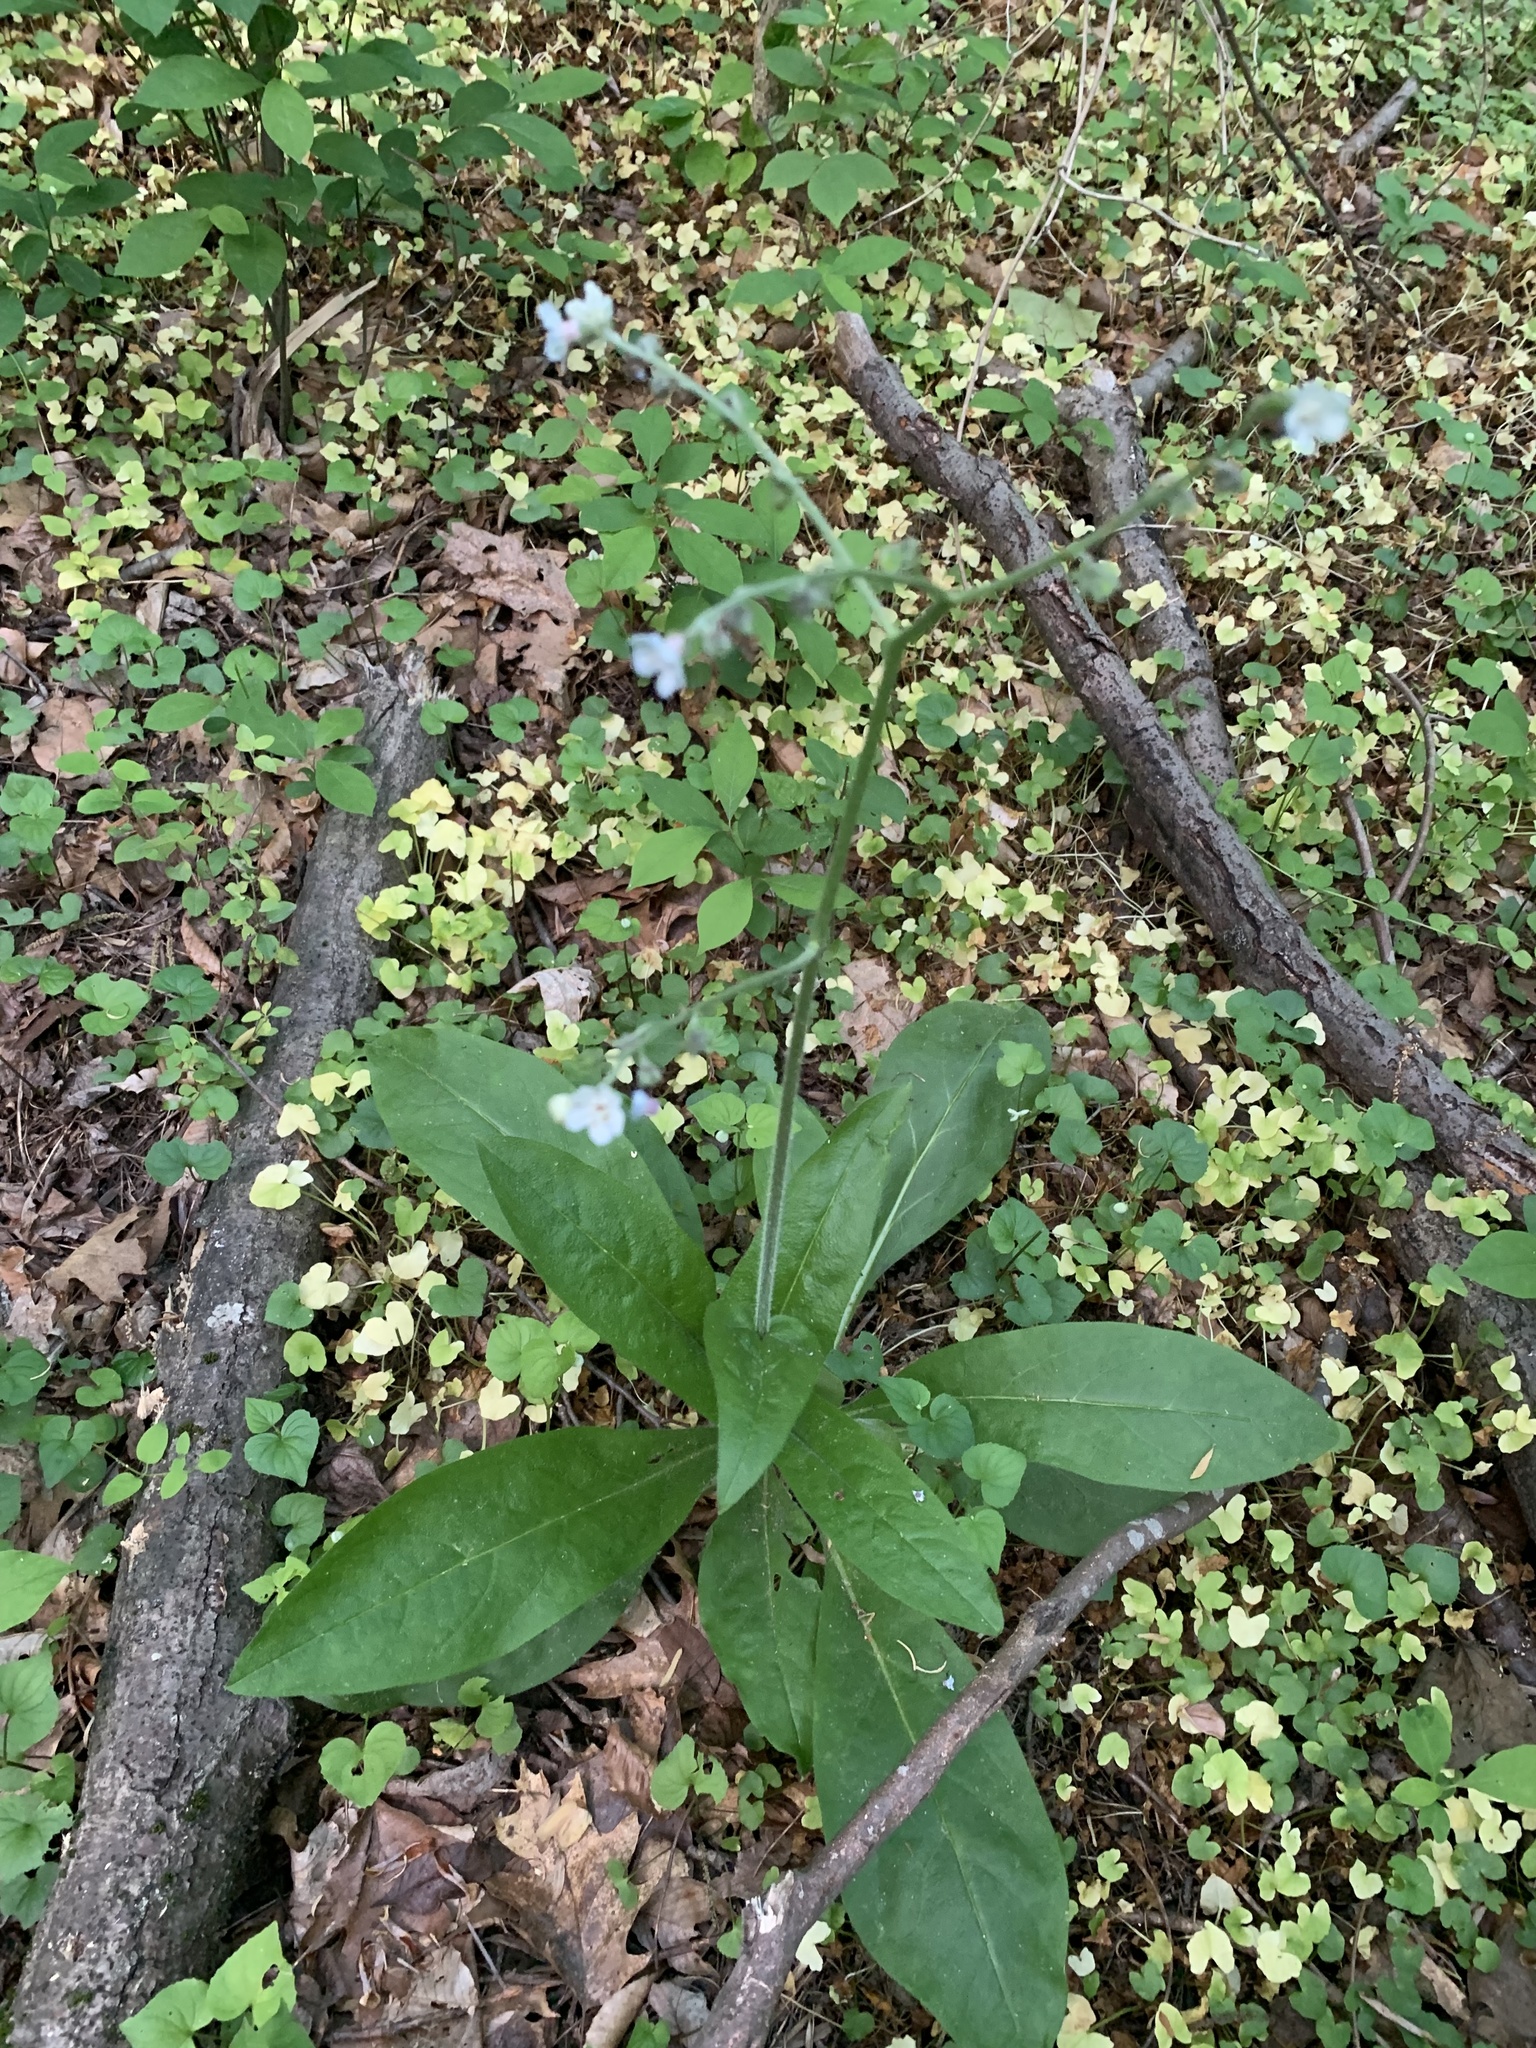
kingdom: Plantae
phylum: Tracheophyta
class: Magnoliopsida
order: Boraginales
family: Boraginaceae
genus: Andersonglossum
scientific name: Andersonglossum virginianum
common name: Wild comfrey
